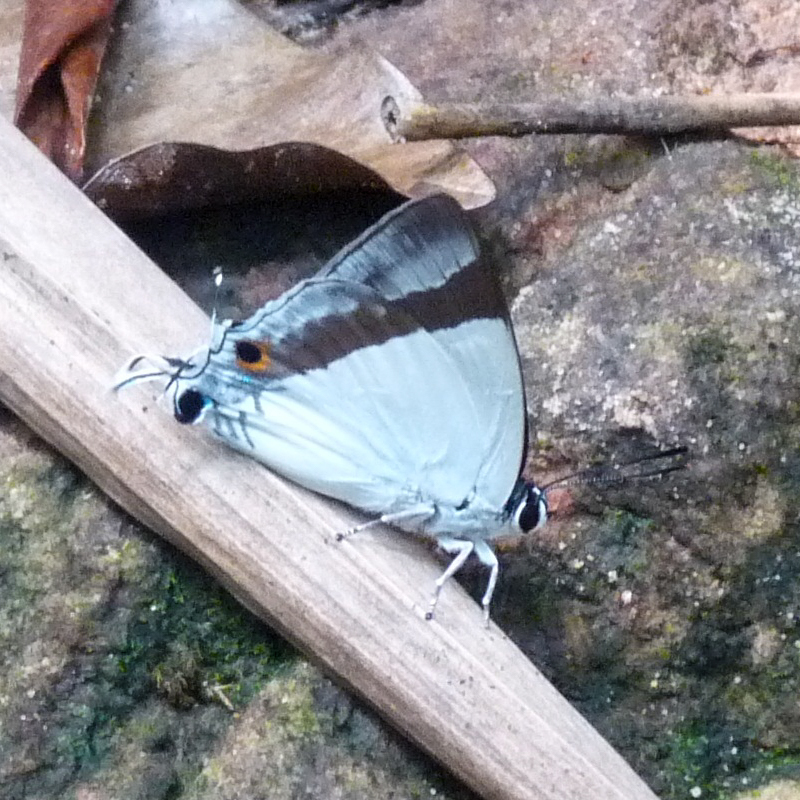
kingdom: Animalia
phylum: Arthropoda
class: Insecta
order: Lepidoptera
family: Hesperiidae
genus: Rachana
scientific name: Rachana jalindra
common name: Banded royal
